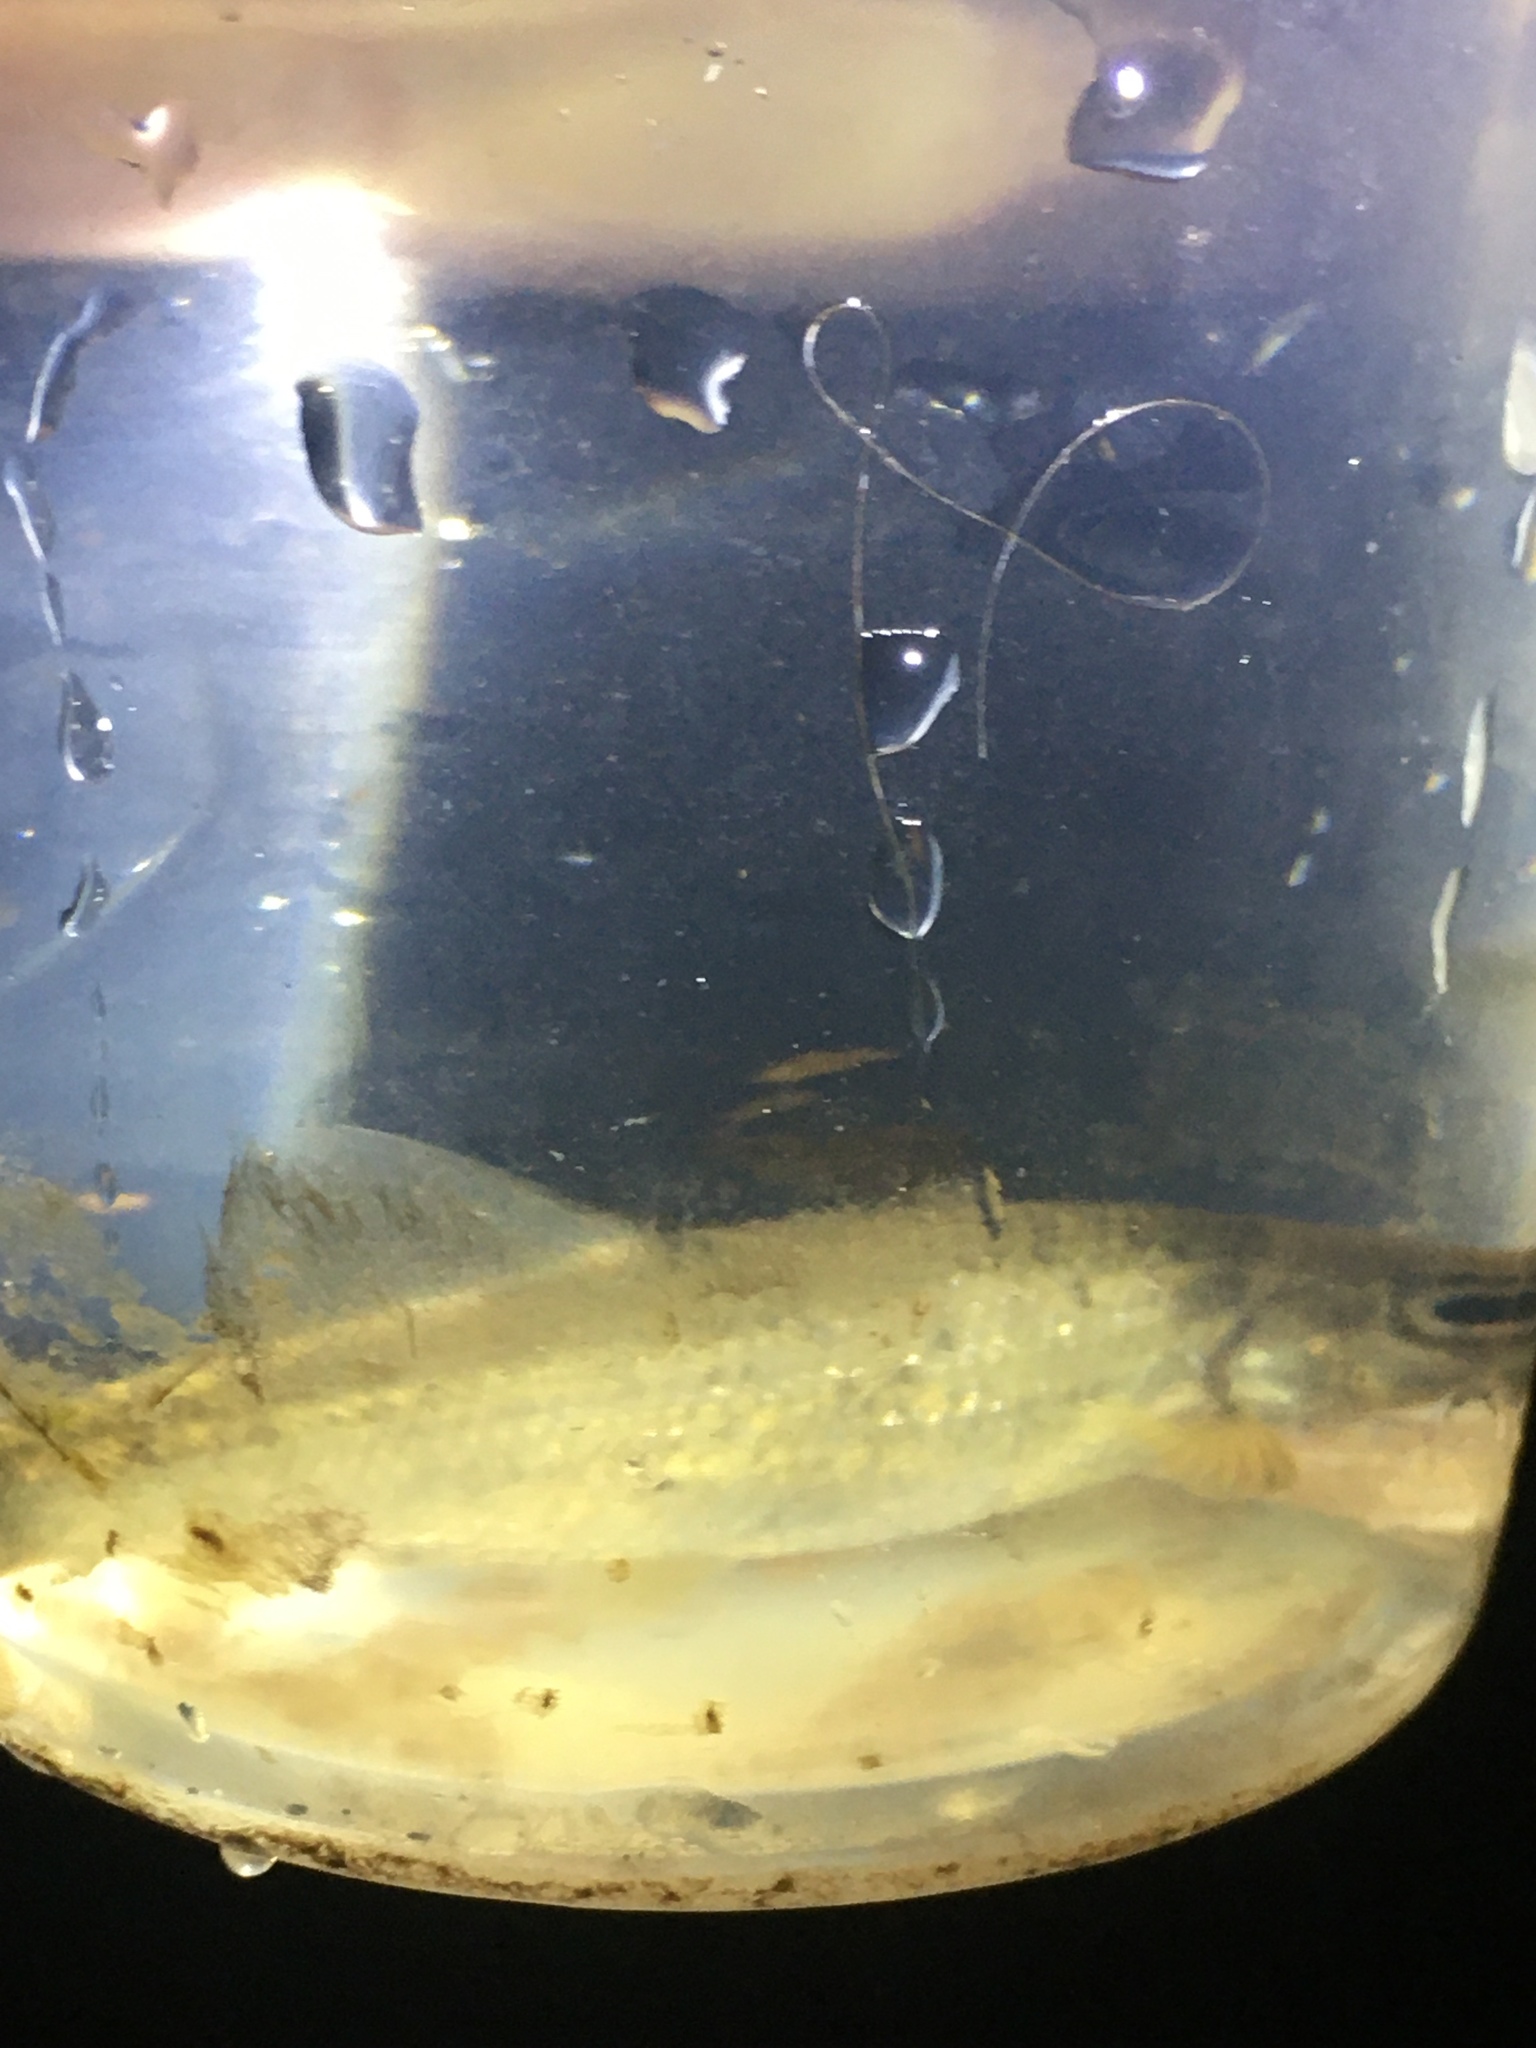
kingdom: Animalia
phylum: Chordata
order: Cypriniformes
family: Cyprinidae
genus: Campostoma
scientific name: Campostoma oligolepis
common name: Largescale stoneroller
